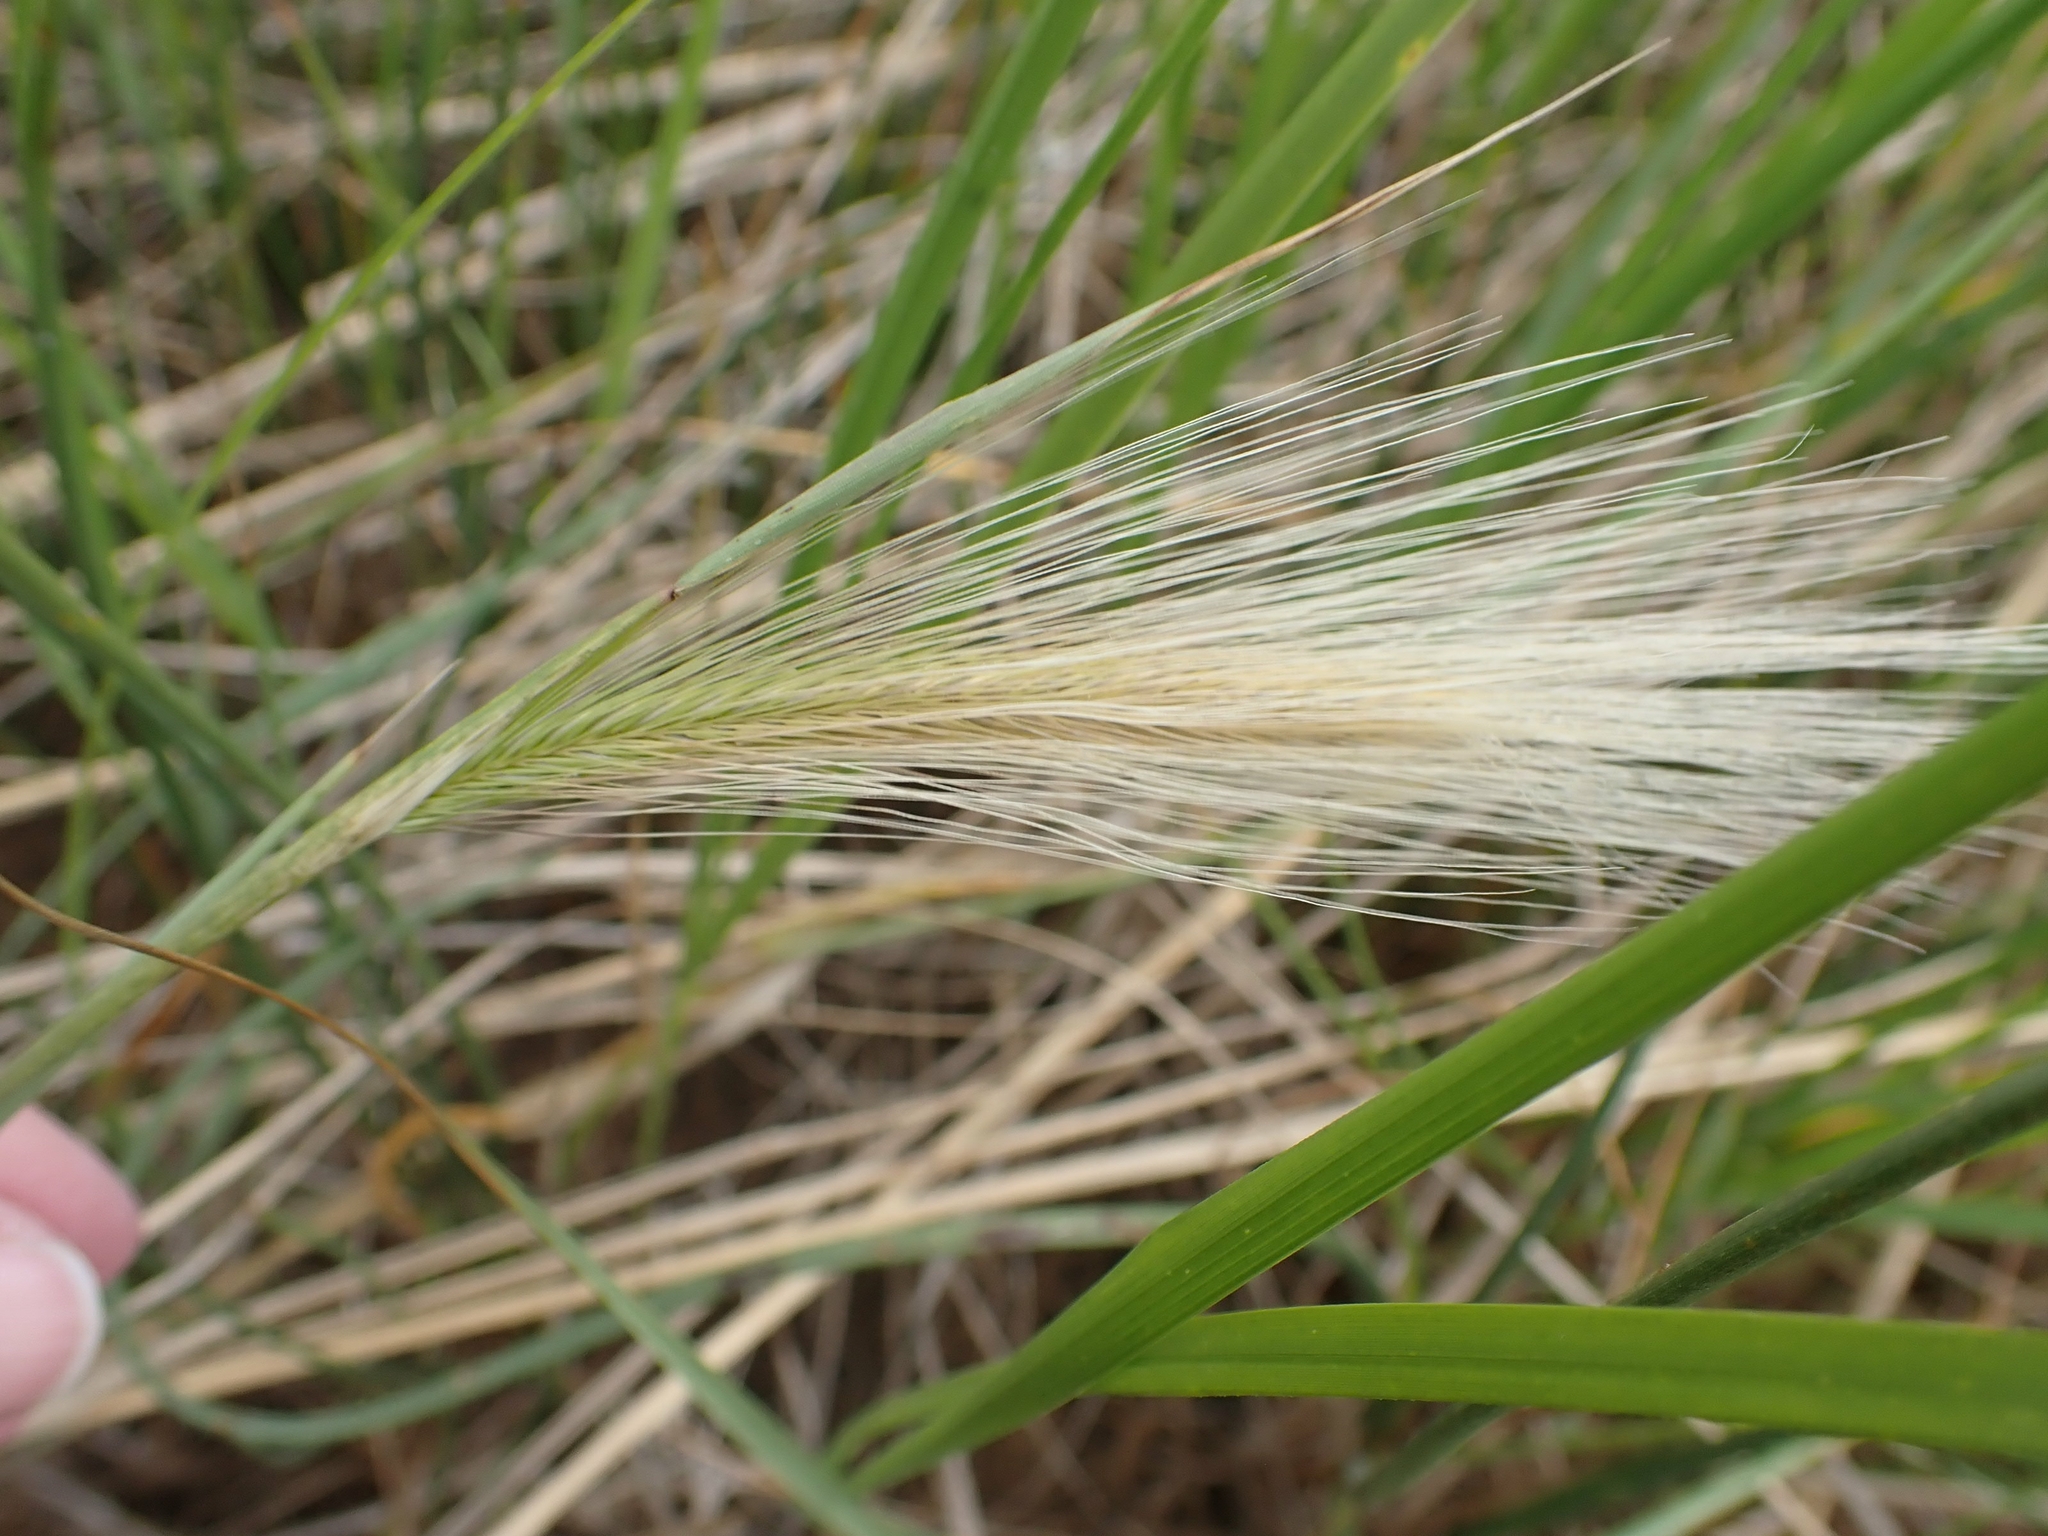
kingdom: Plantae
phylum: Tracheophyta
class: Liliopsida
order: Poales
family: Poaceae
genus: Hordeum
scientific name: Hordeum jubatum
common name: Foxtail barley
